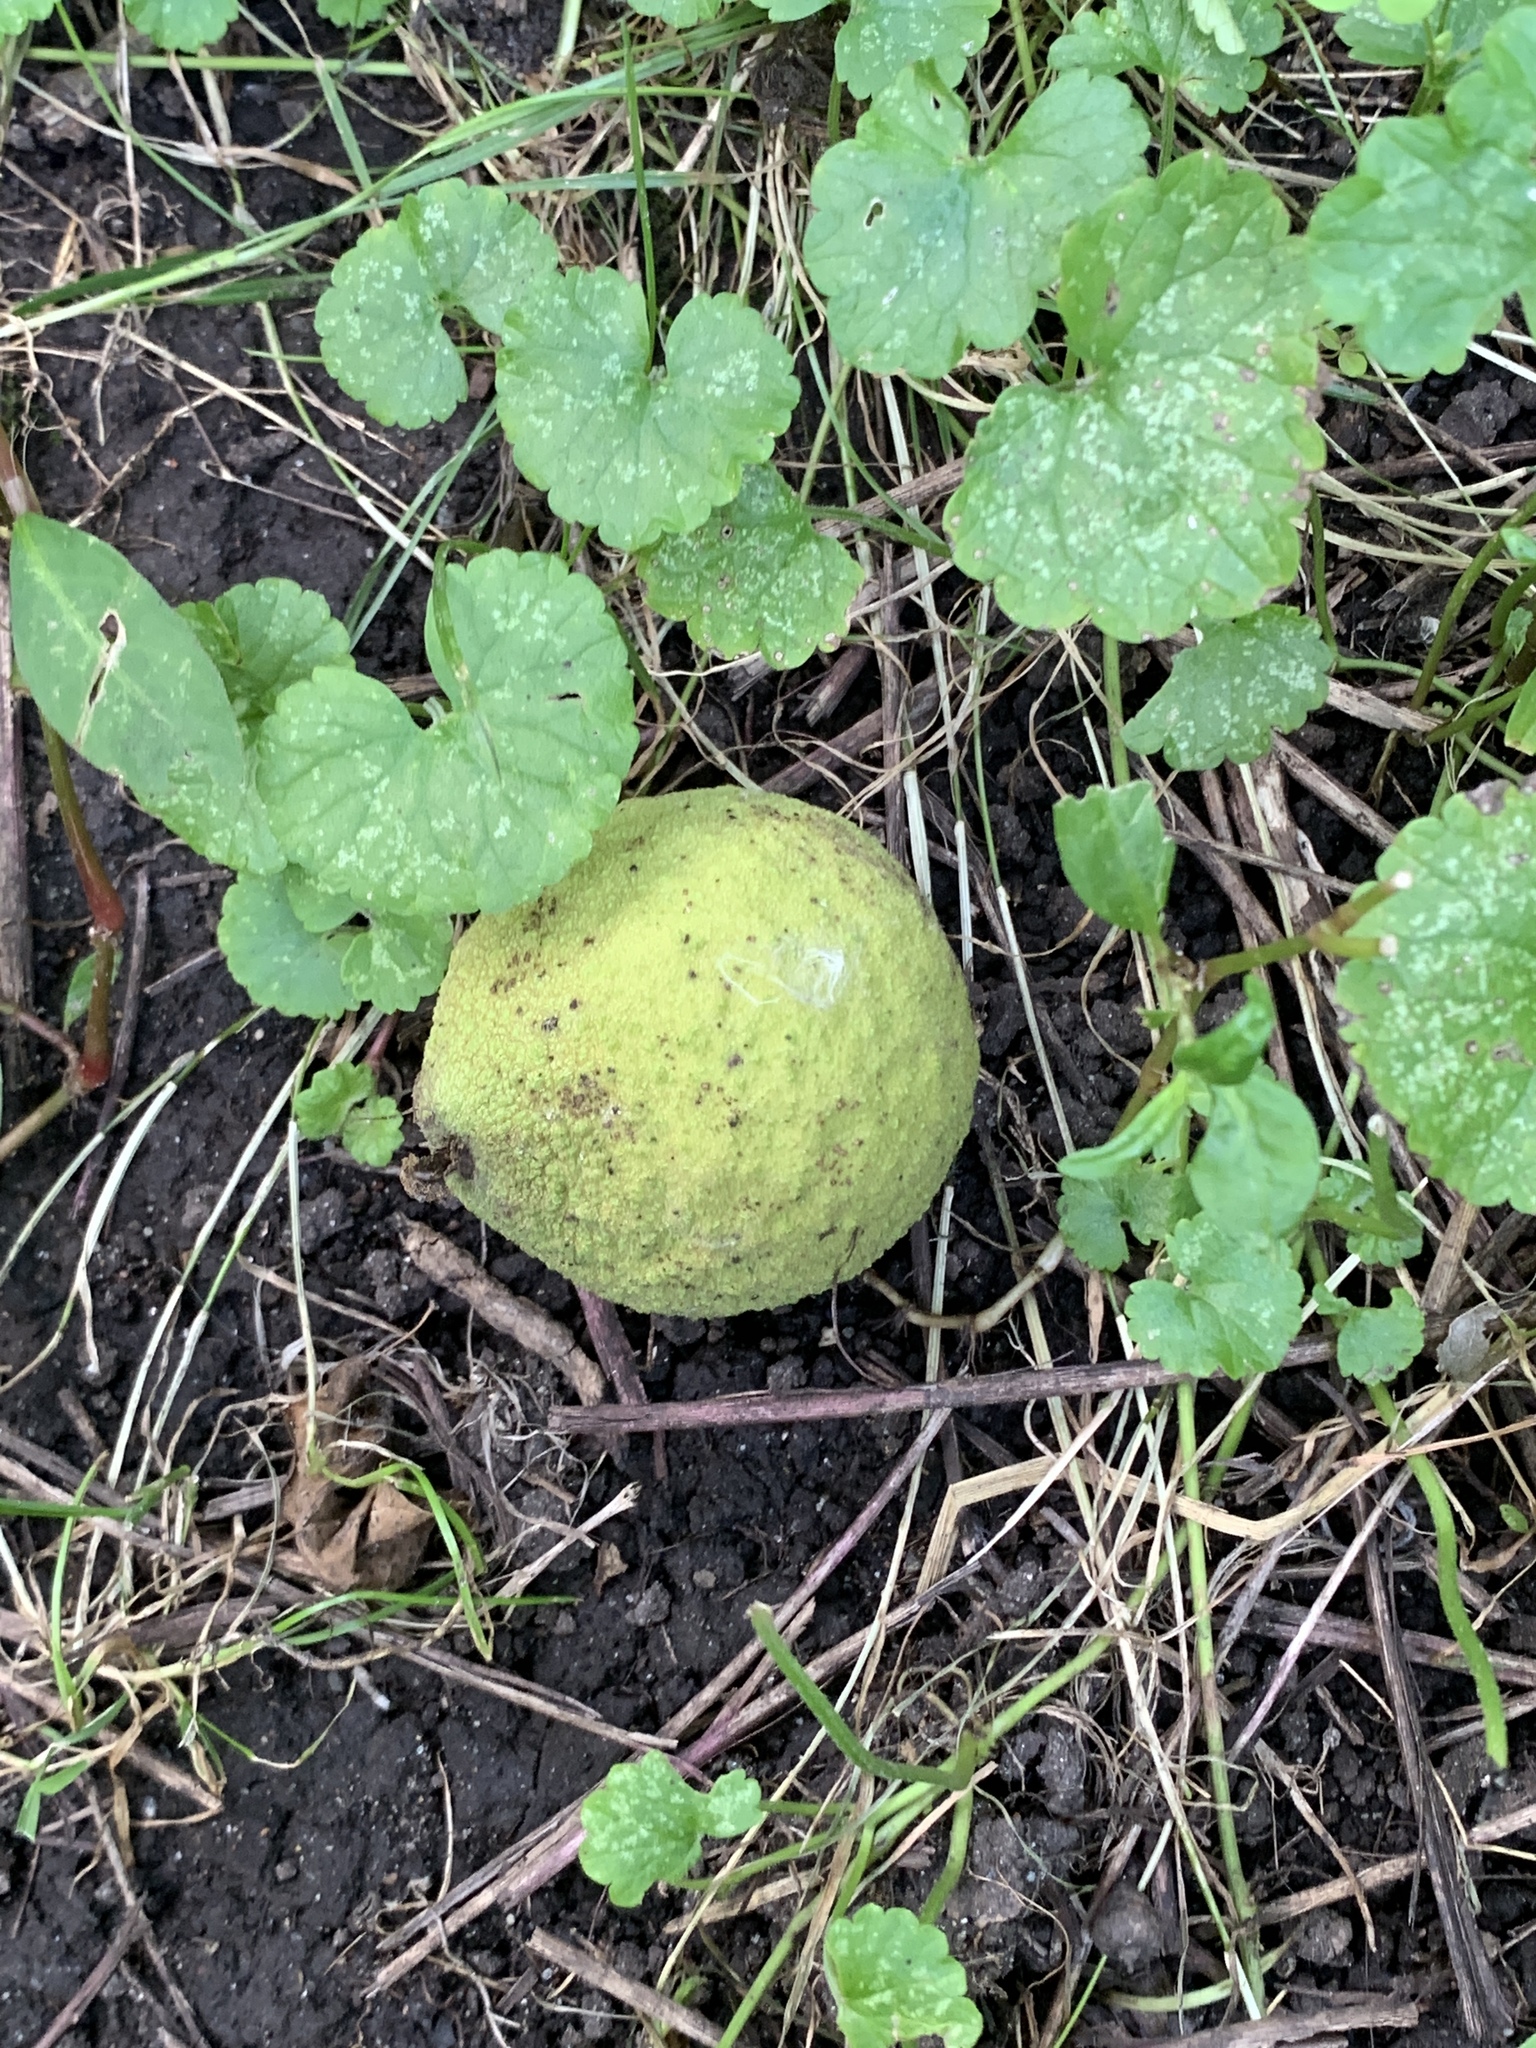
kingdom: Plantae
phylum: Tracheophyta
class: Magnoliopsida
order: Fagales
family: Juglandaceae
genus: Juglans
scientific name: Juglans nigra
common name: Black walnut
